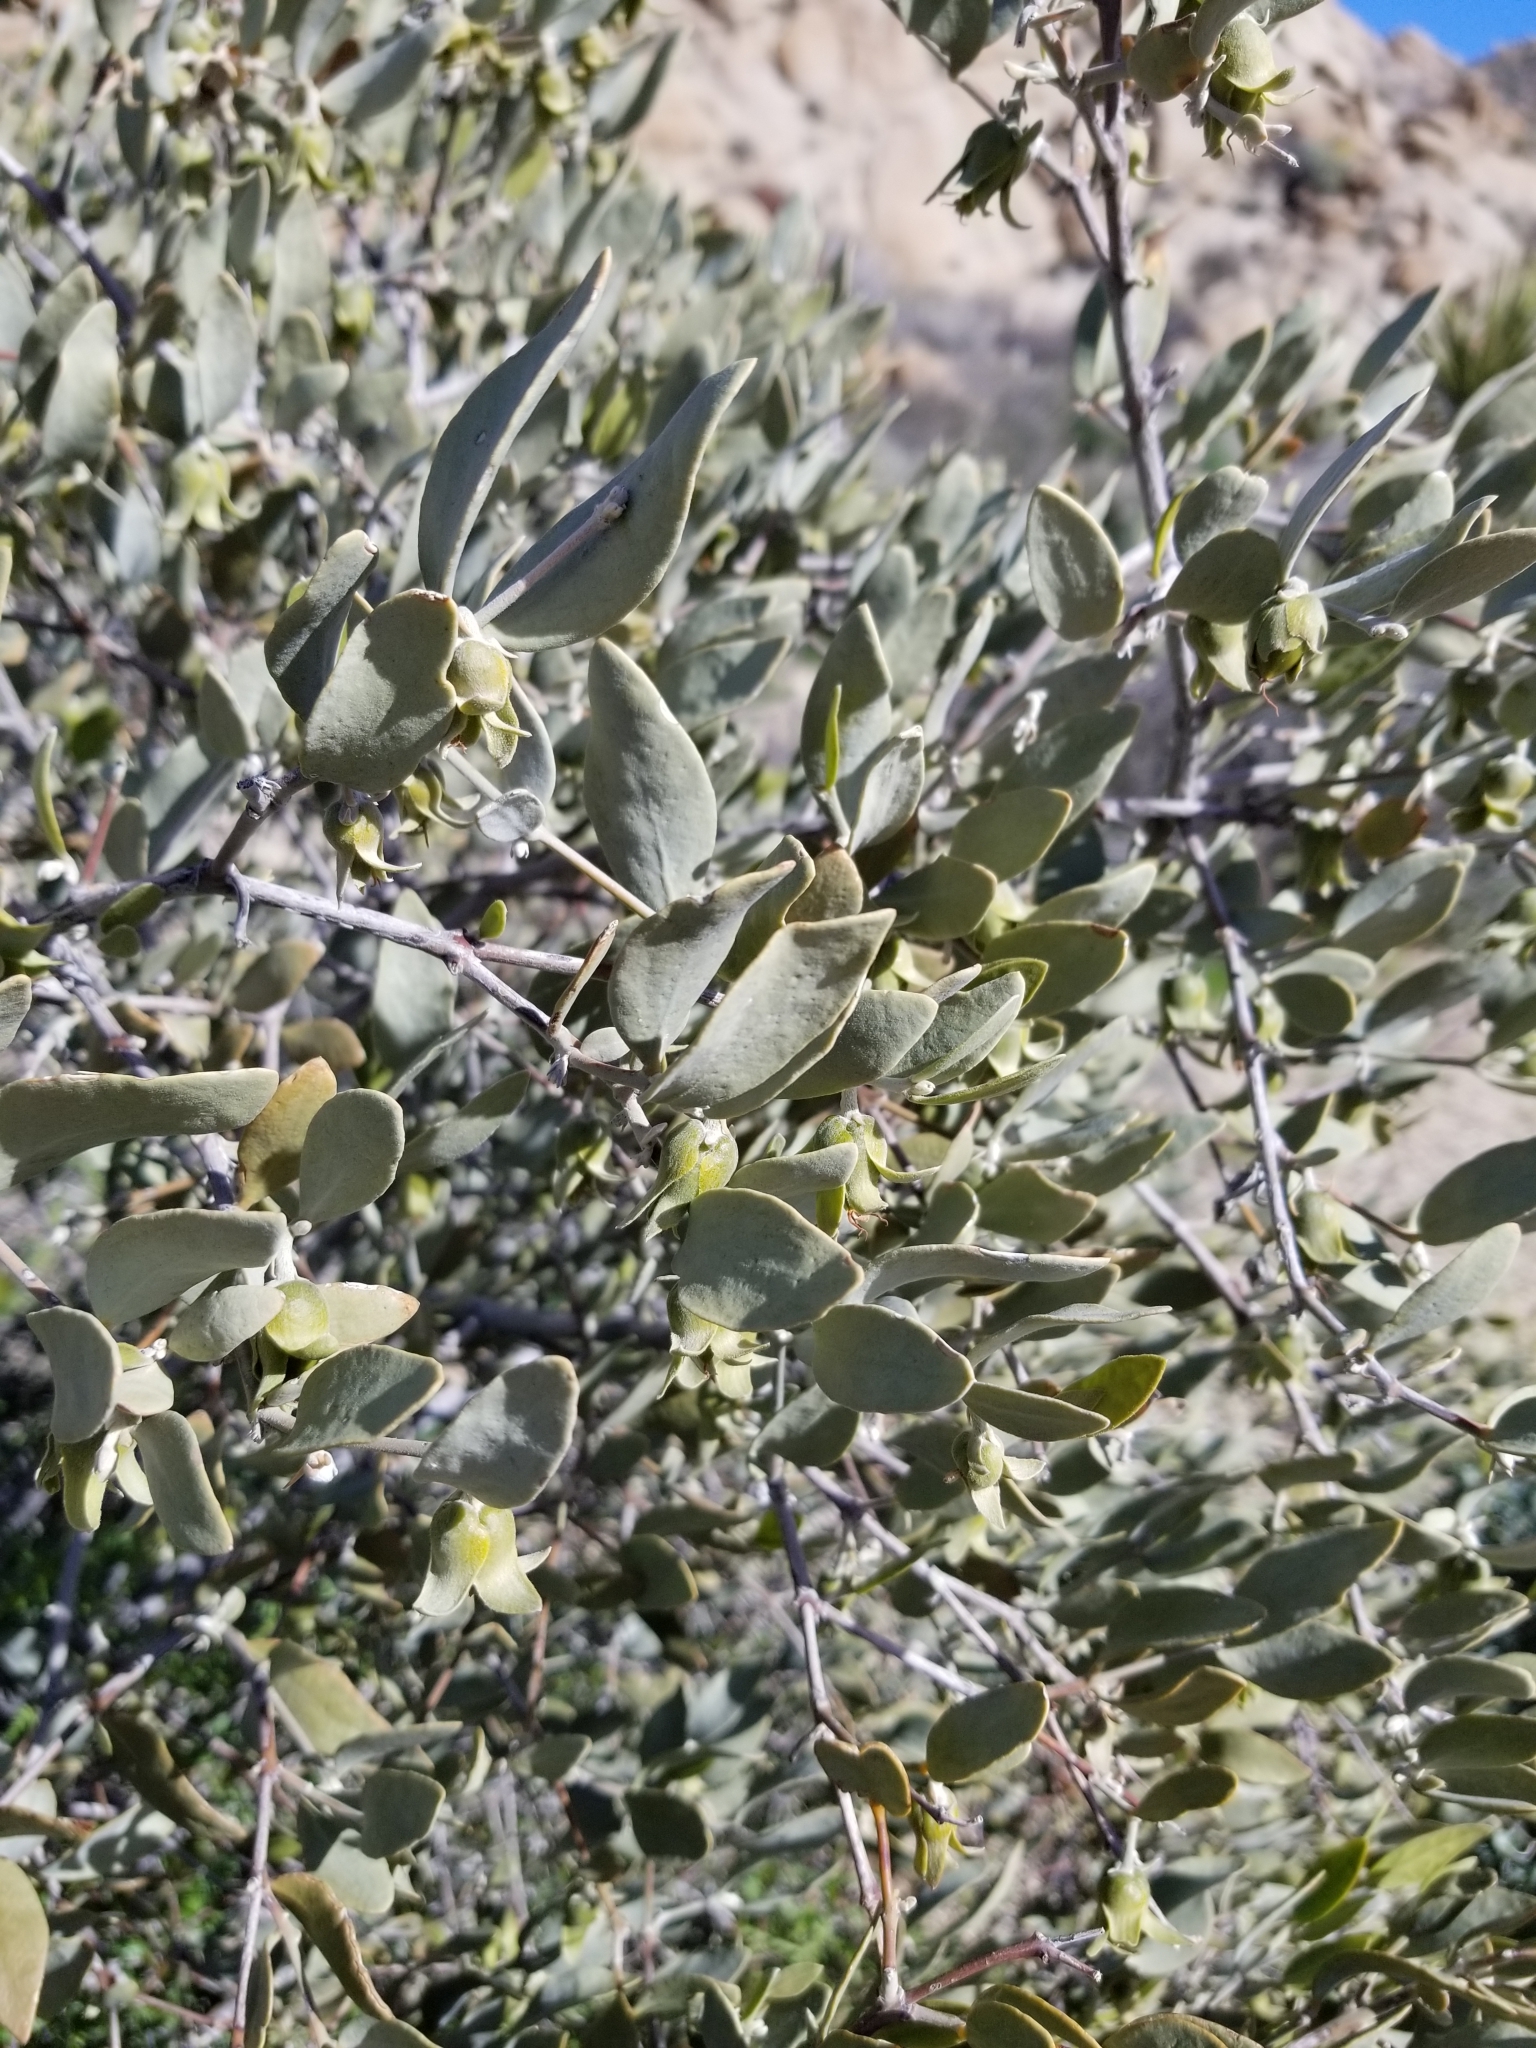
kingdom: Plantae
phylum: Tracheophyta
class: Magnoliopsida
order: Caryophyllales
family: Simmondsiaceae
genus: Simmondsia
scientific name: Simmondsia chinensis
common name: Jojoba
